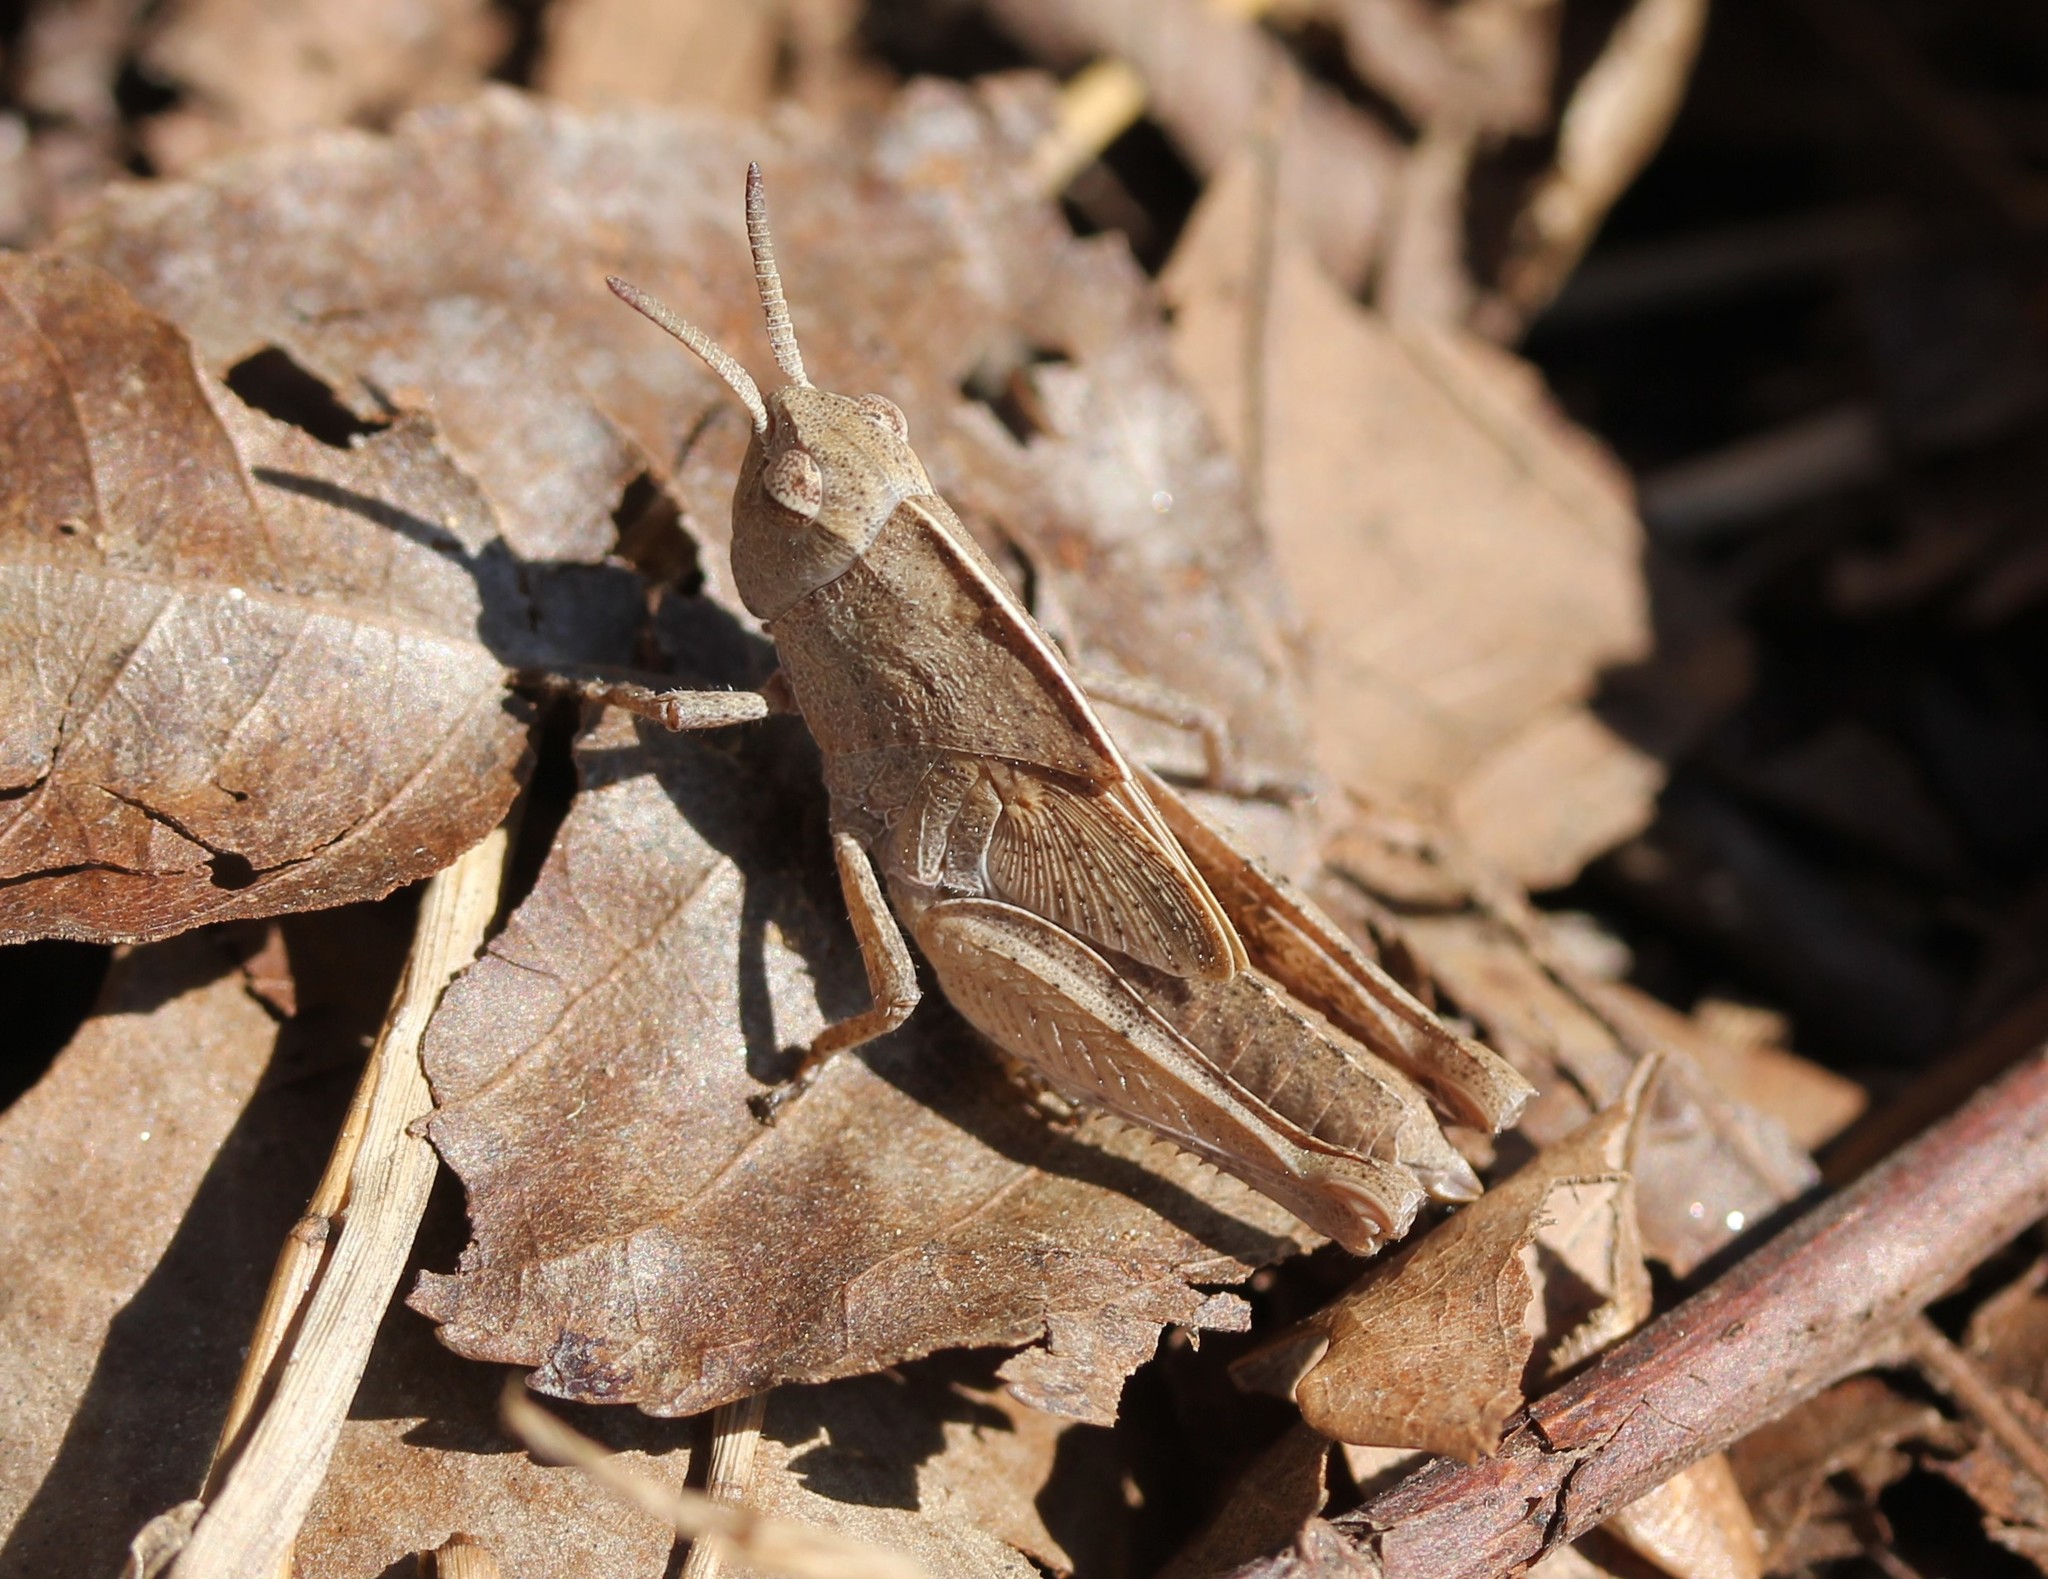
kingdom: Animalia
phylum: Arthropoda
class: Insecta
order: Orthoptera
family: Acrididae
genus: Chortophaga
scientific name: Chortophaga viridifasciata
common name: Green-striped grasshopper
